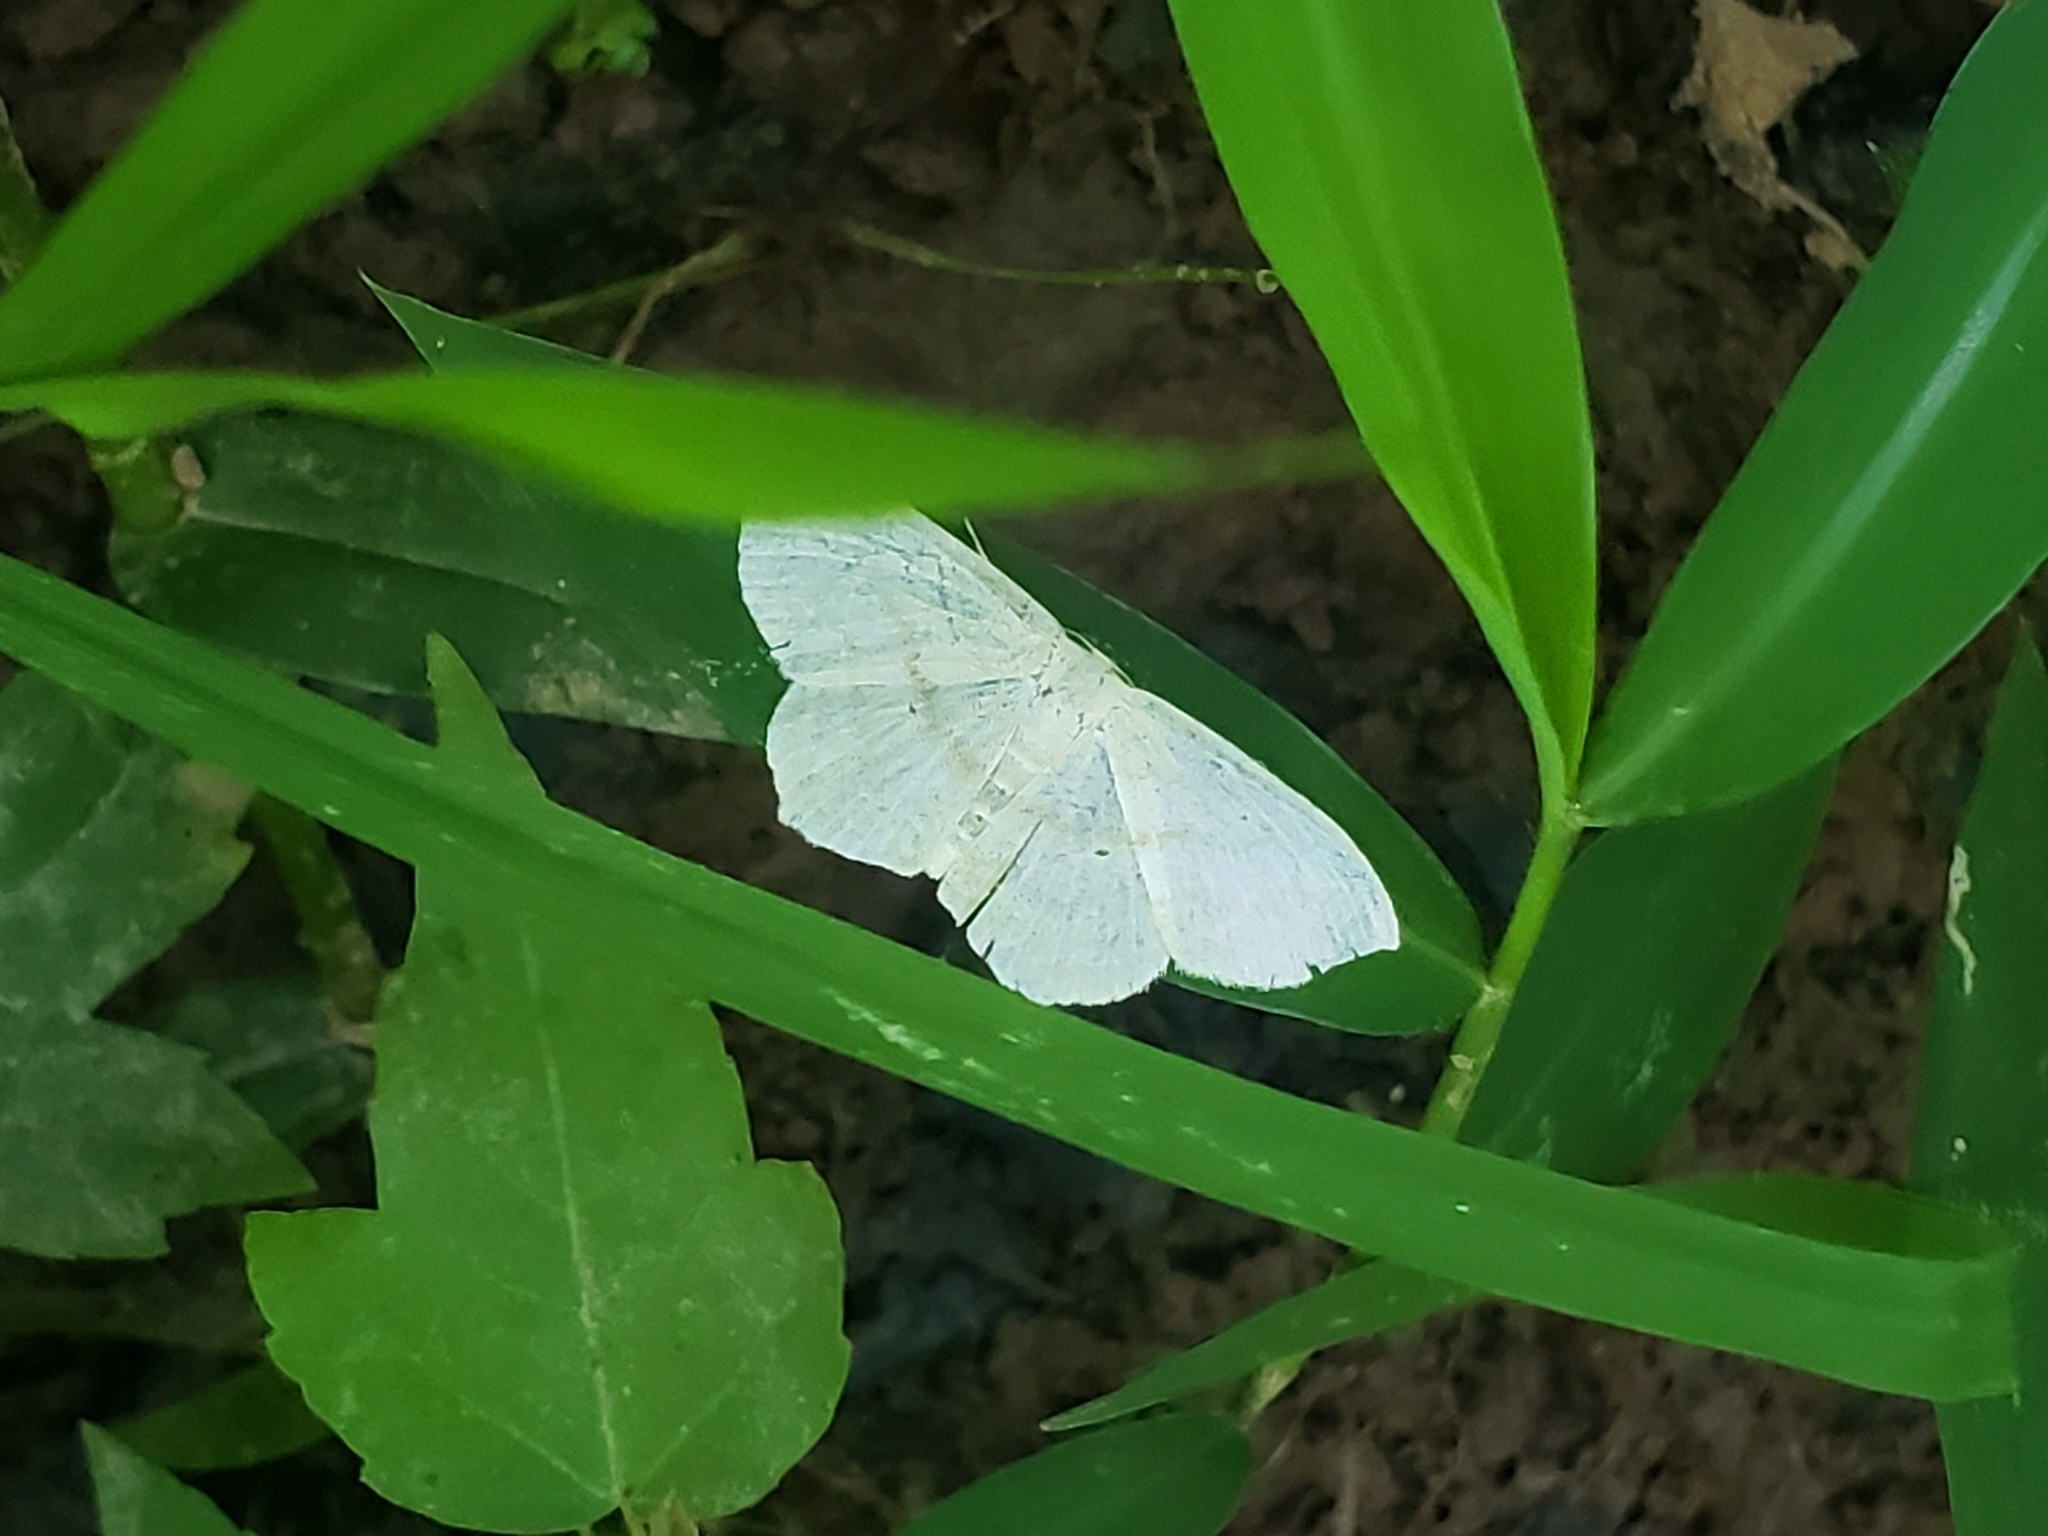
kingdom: Animalia
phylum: Arthropoda
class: Insecta
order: Lepidoptera
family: Geometridae
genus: Scopula
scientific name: Scopula limboundata
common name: Large lace border
